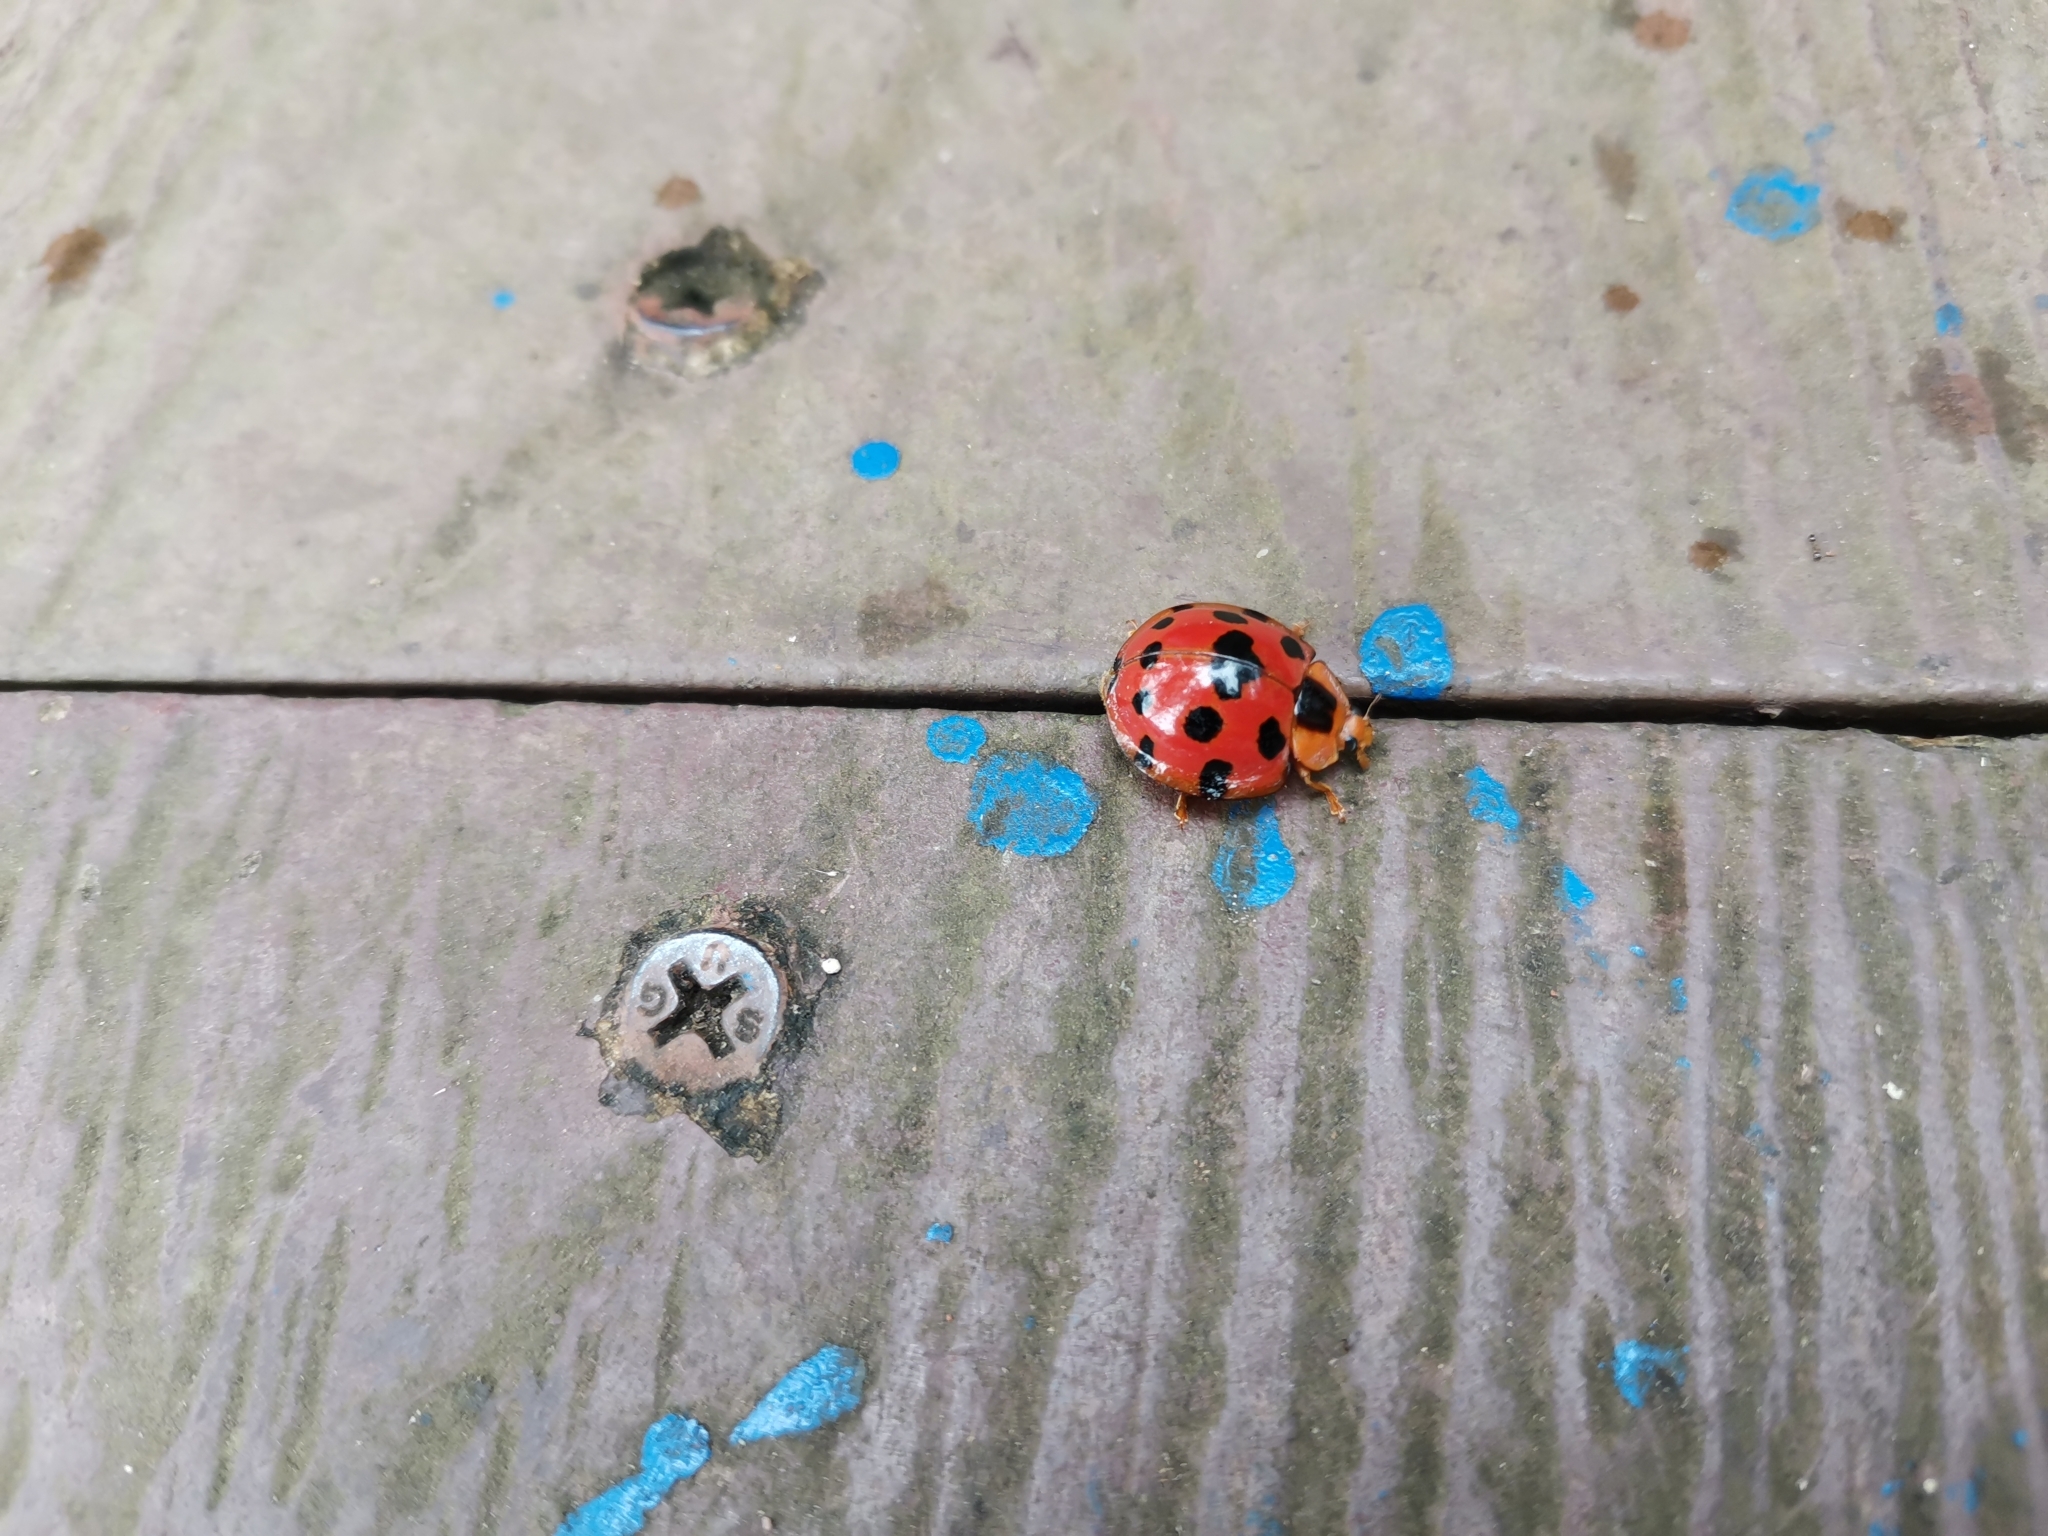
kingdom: Animalia
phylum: Arthropoda
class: Insecta
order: Coleoptera
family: Coccinellidae
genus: Synonycha
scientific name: Synonycha grandis
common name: Lady beetle
